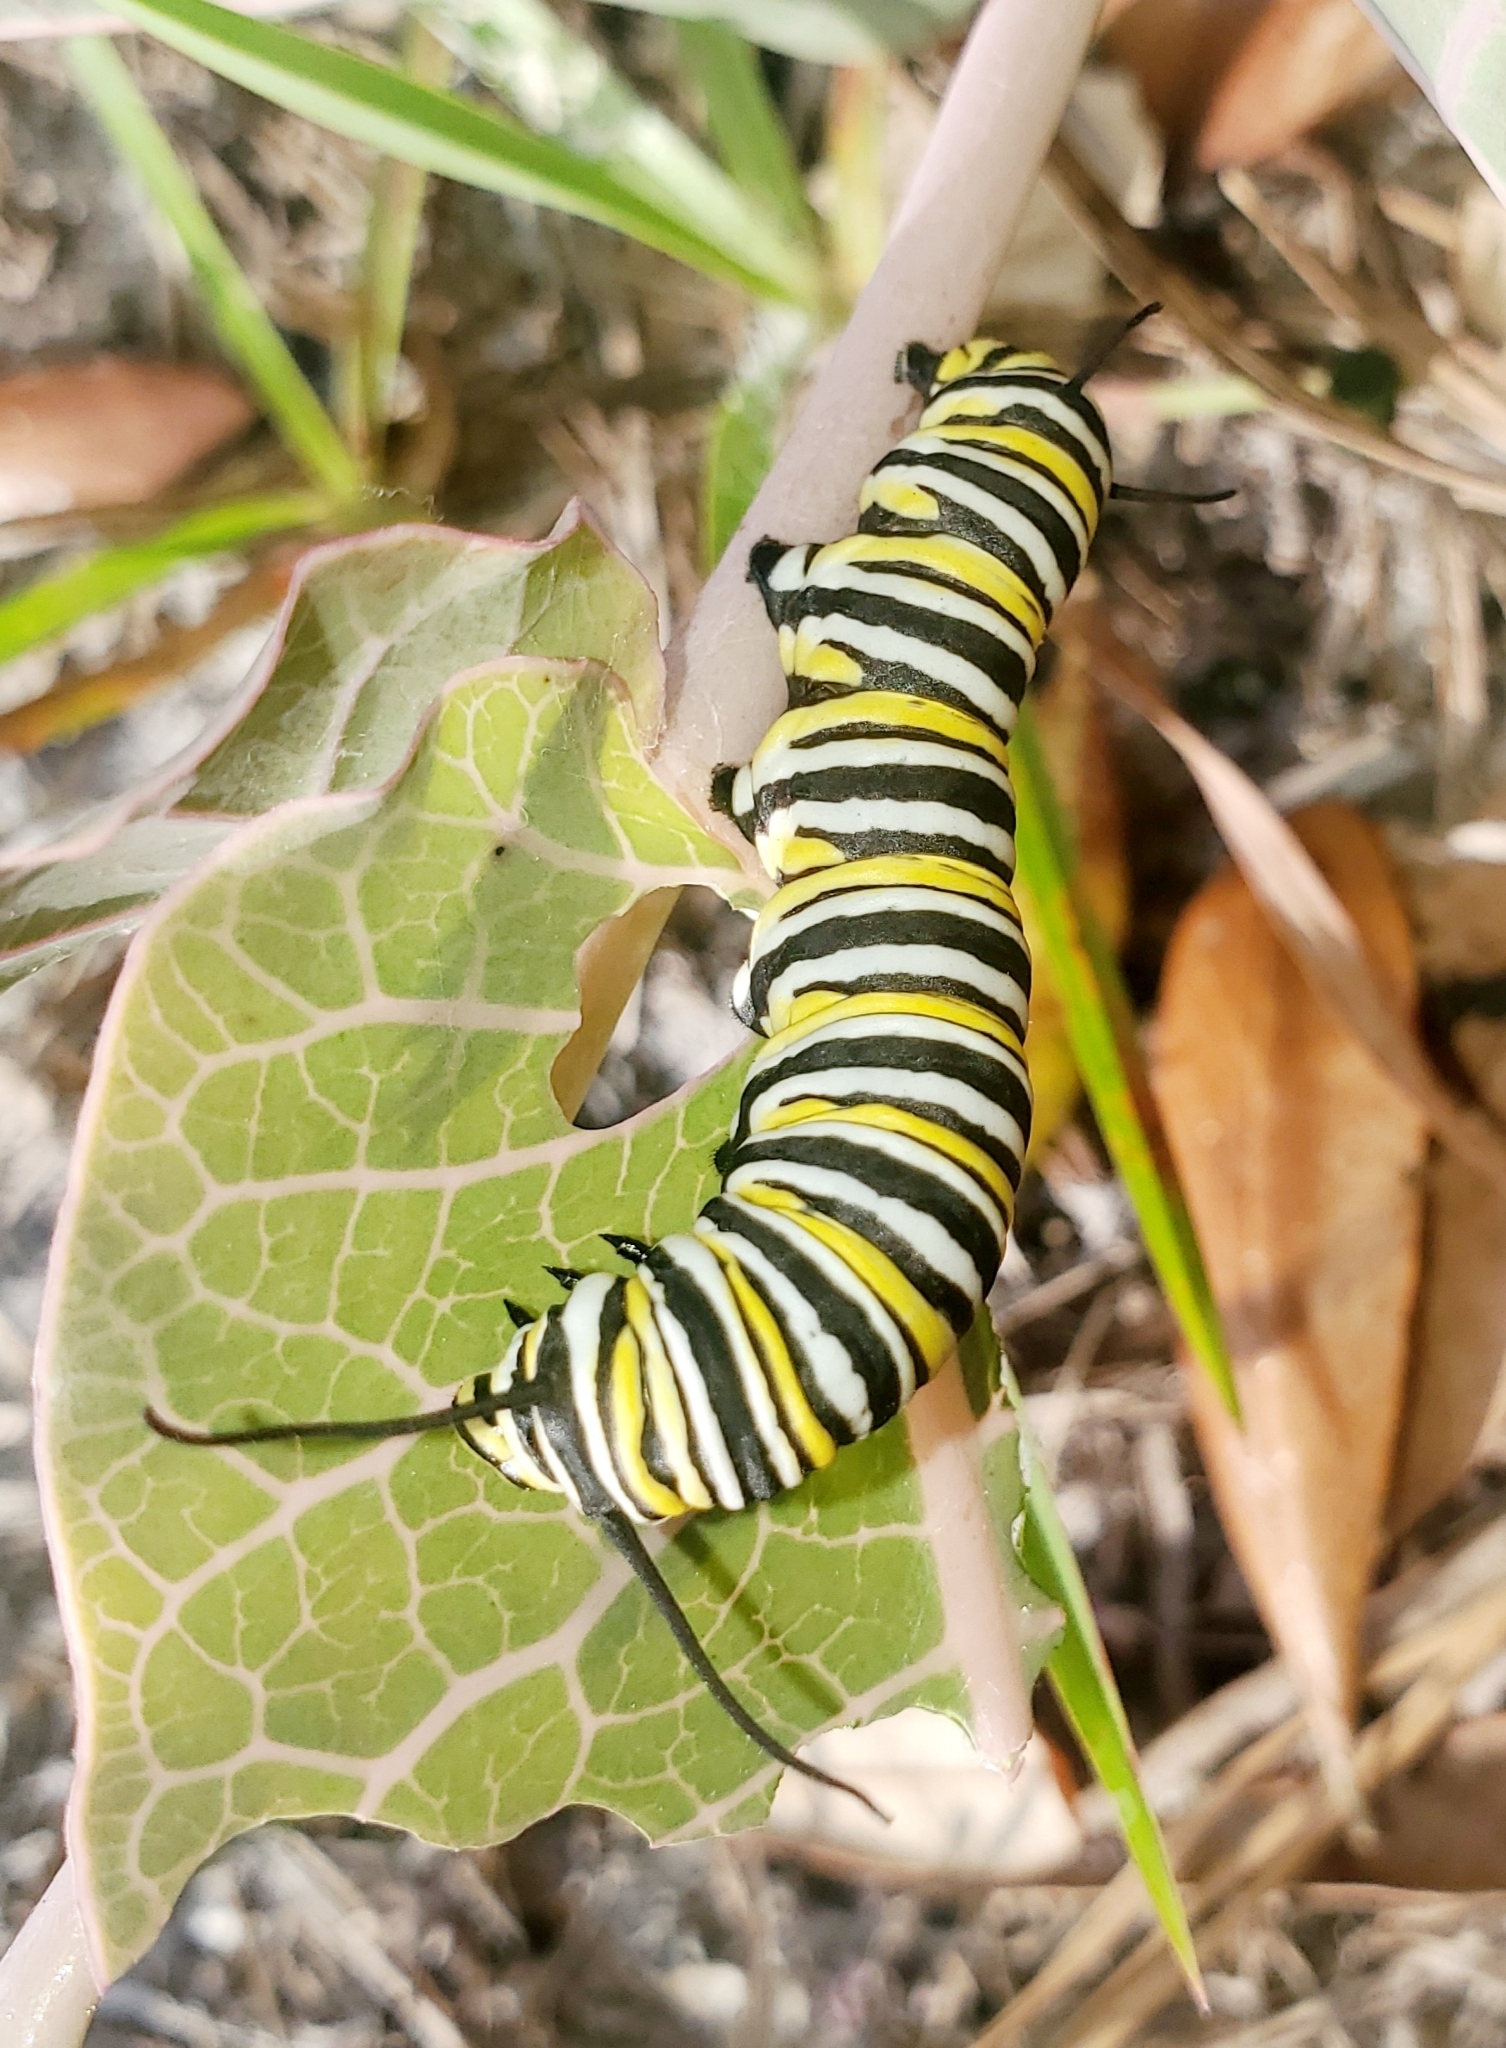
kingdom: Animalia
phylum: Arthropoda
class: Insecta
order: Lepidoptera
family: Nymphalidae
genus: Danaus
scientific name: Danaus plexippus
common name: Monarch
